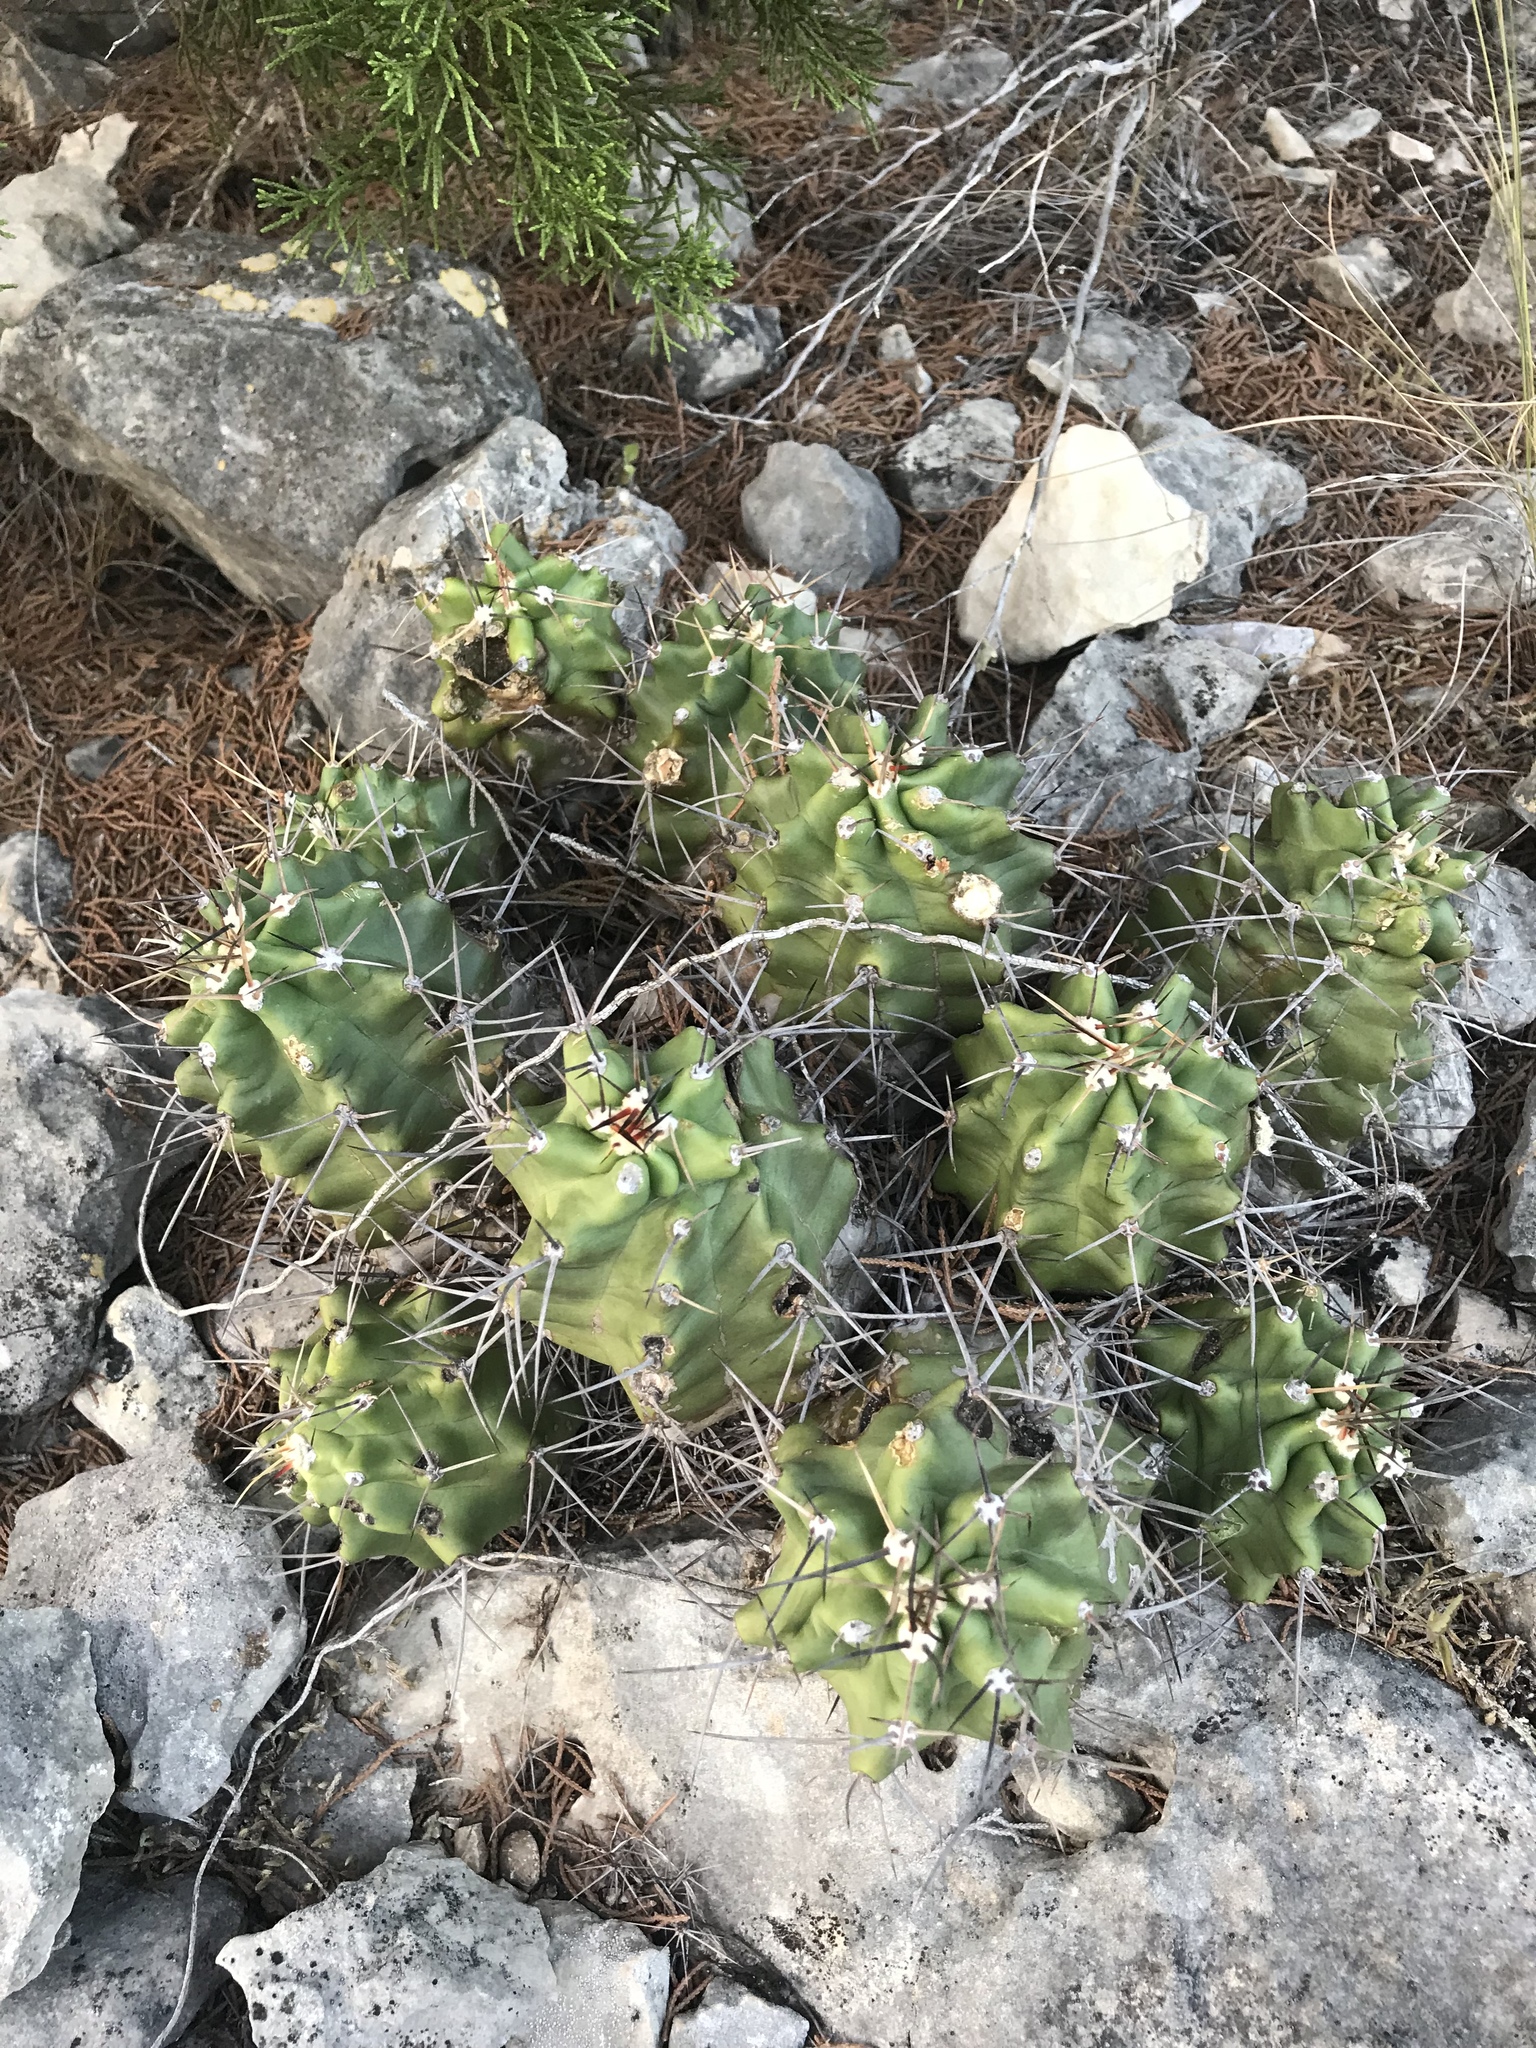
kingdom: Plantae
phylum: Tracheophyta
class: Magnoliopsida
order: Caryophyllales
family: Cactaceae
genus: Echinocereus
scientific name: Echinocereus coccineus
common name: Scarlet hedgehog cactus
